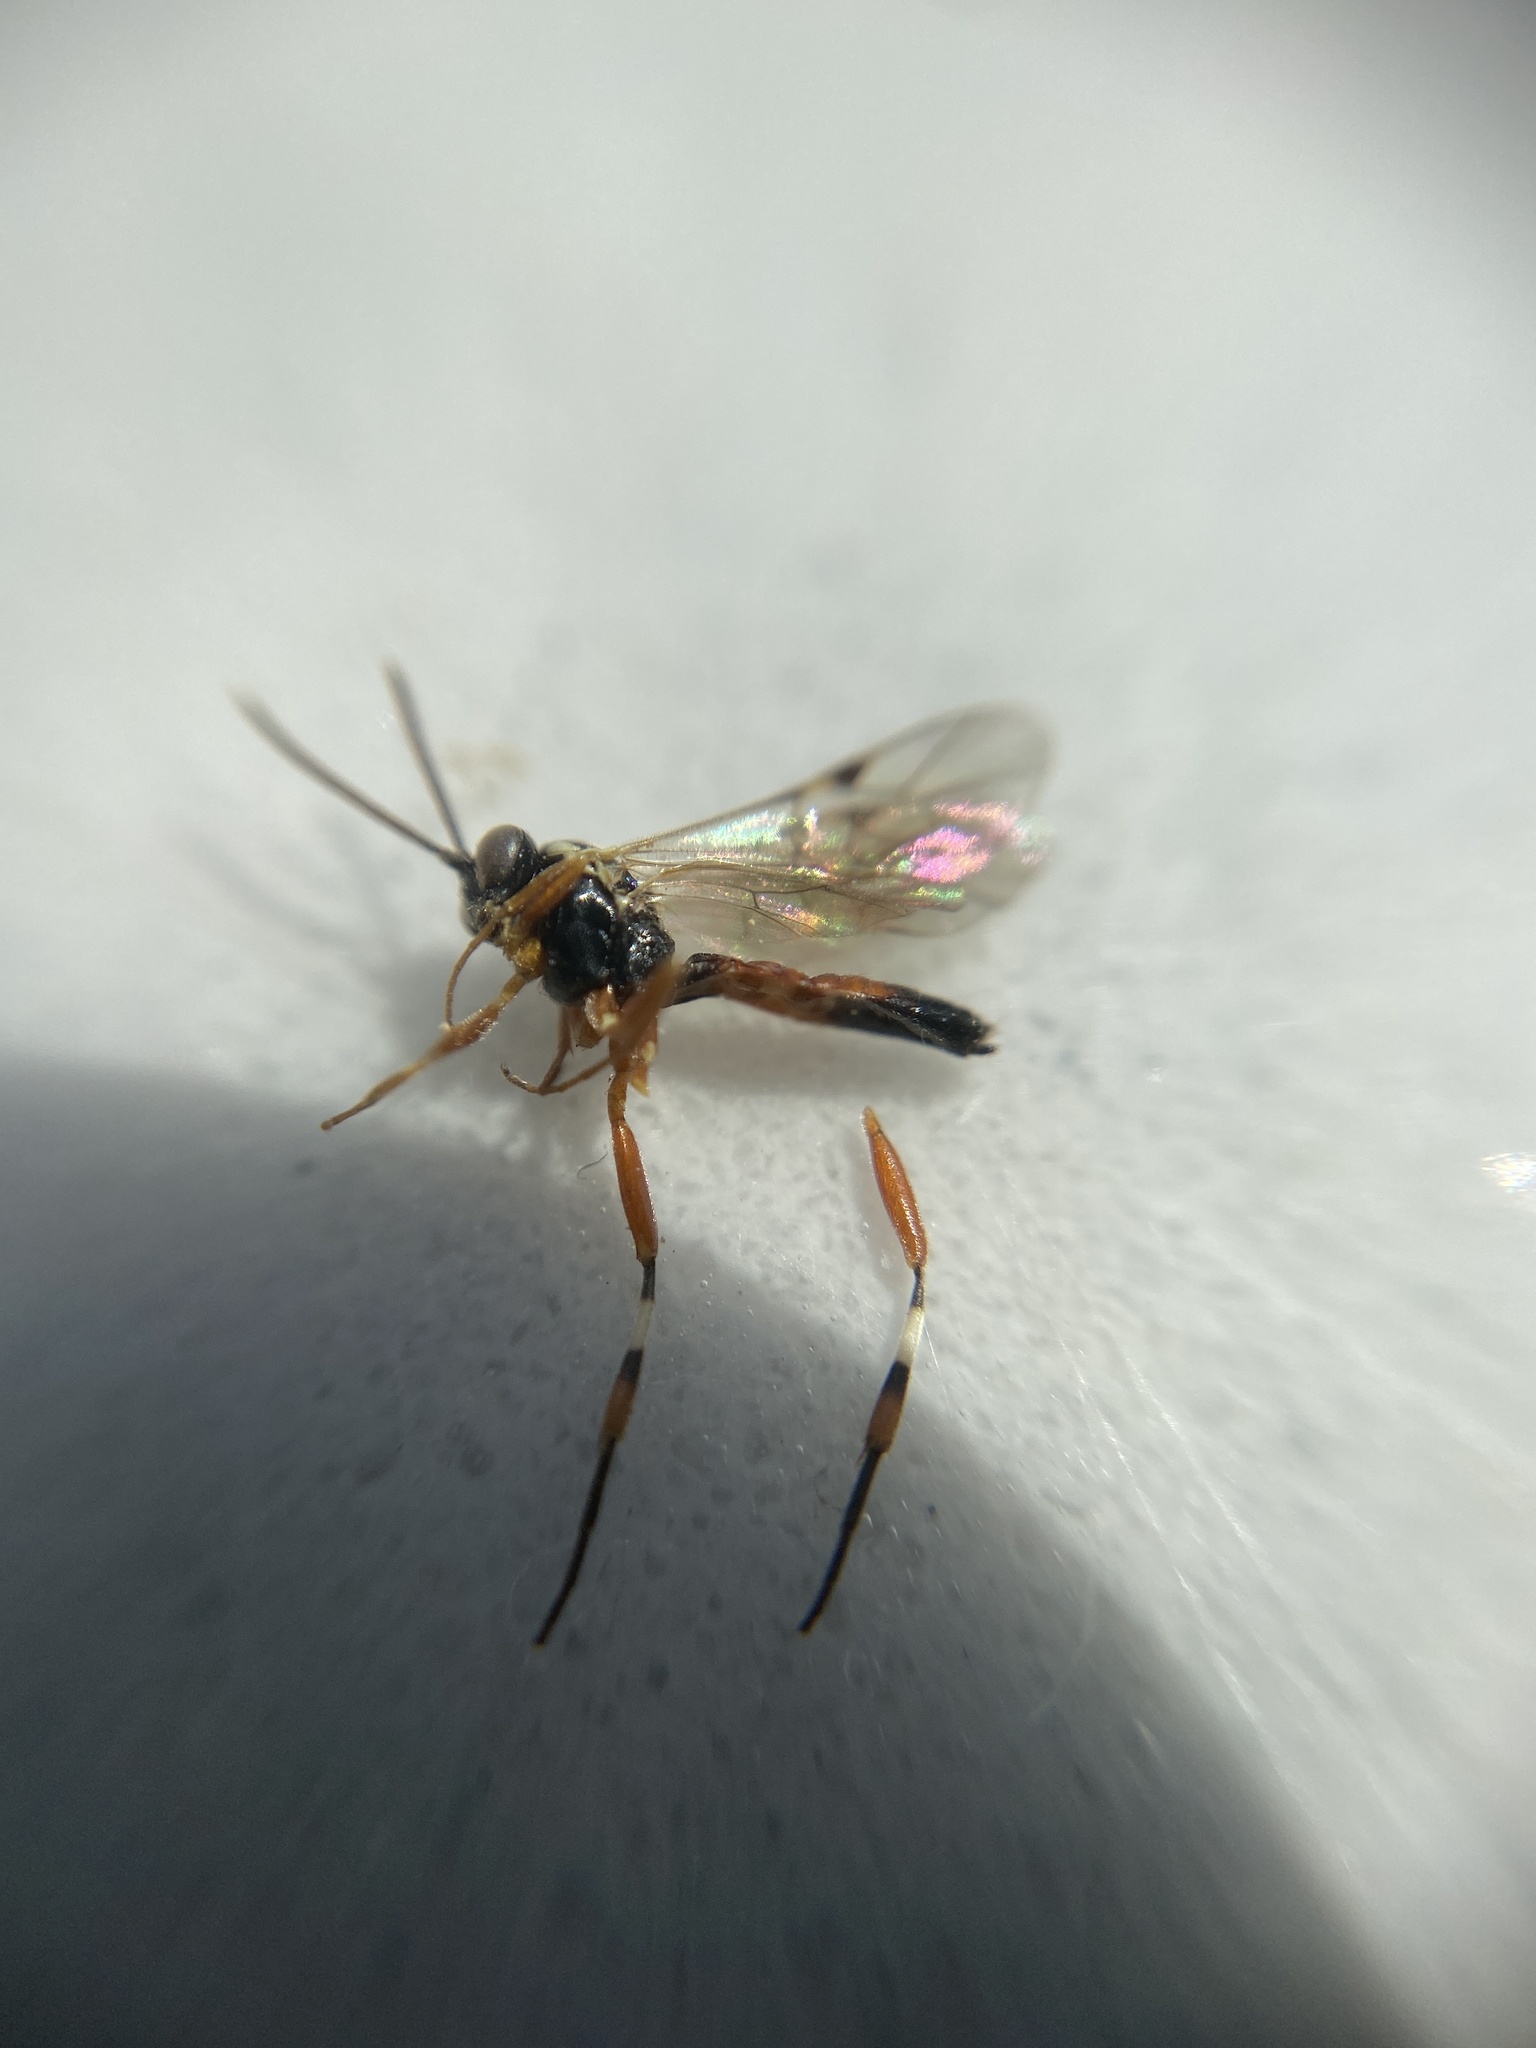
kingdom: Animalia
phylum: Arthropoda
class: Insecta
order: Hymenoptera
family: Ichneumonidae
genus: Diplazon
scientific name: Diplazon laetatorius
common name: Parasitoid wasp
